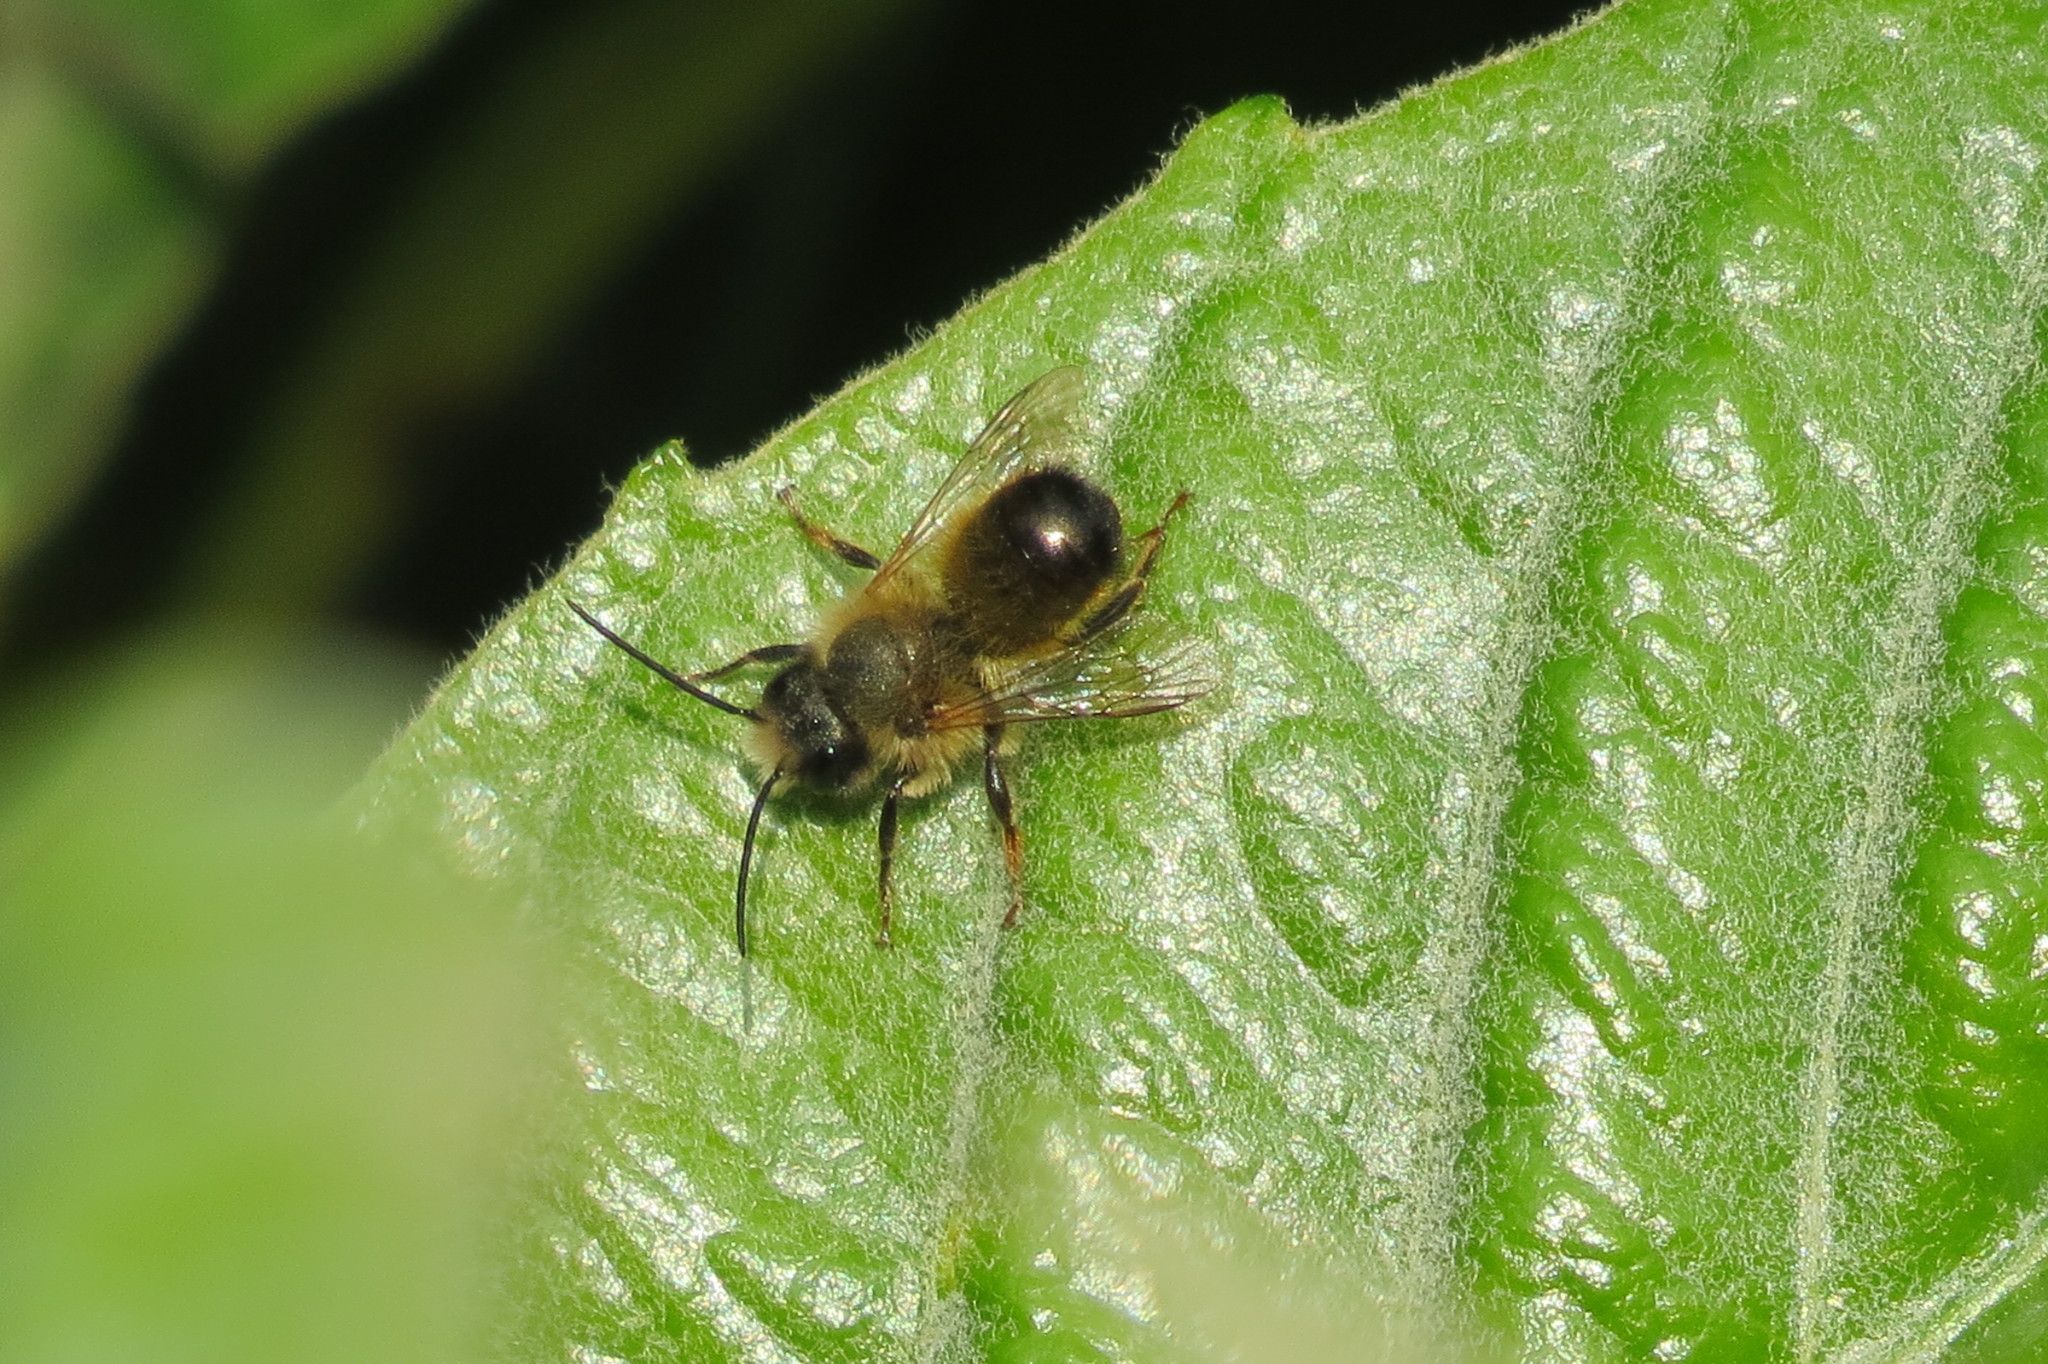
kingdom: Animalia
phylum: Arthropoda
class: Insecta
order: Hymenoptera
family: Megachilidae
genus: Osmia
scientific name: Osmia bicornis
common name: Red mason bee
